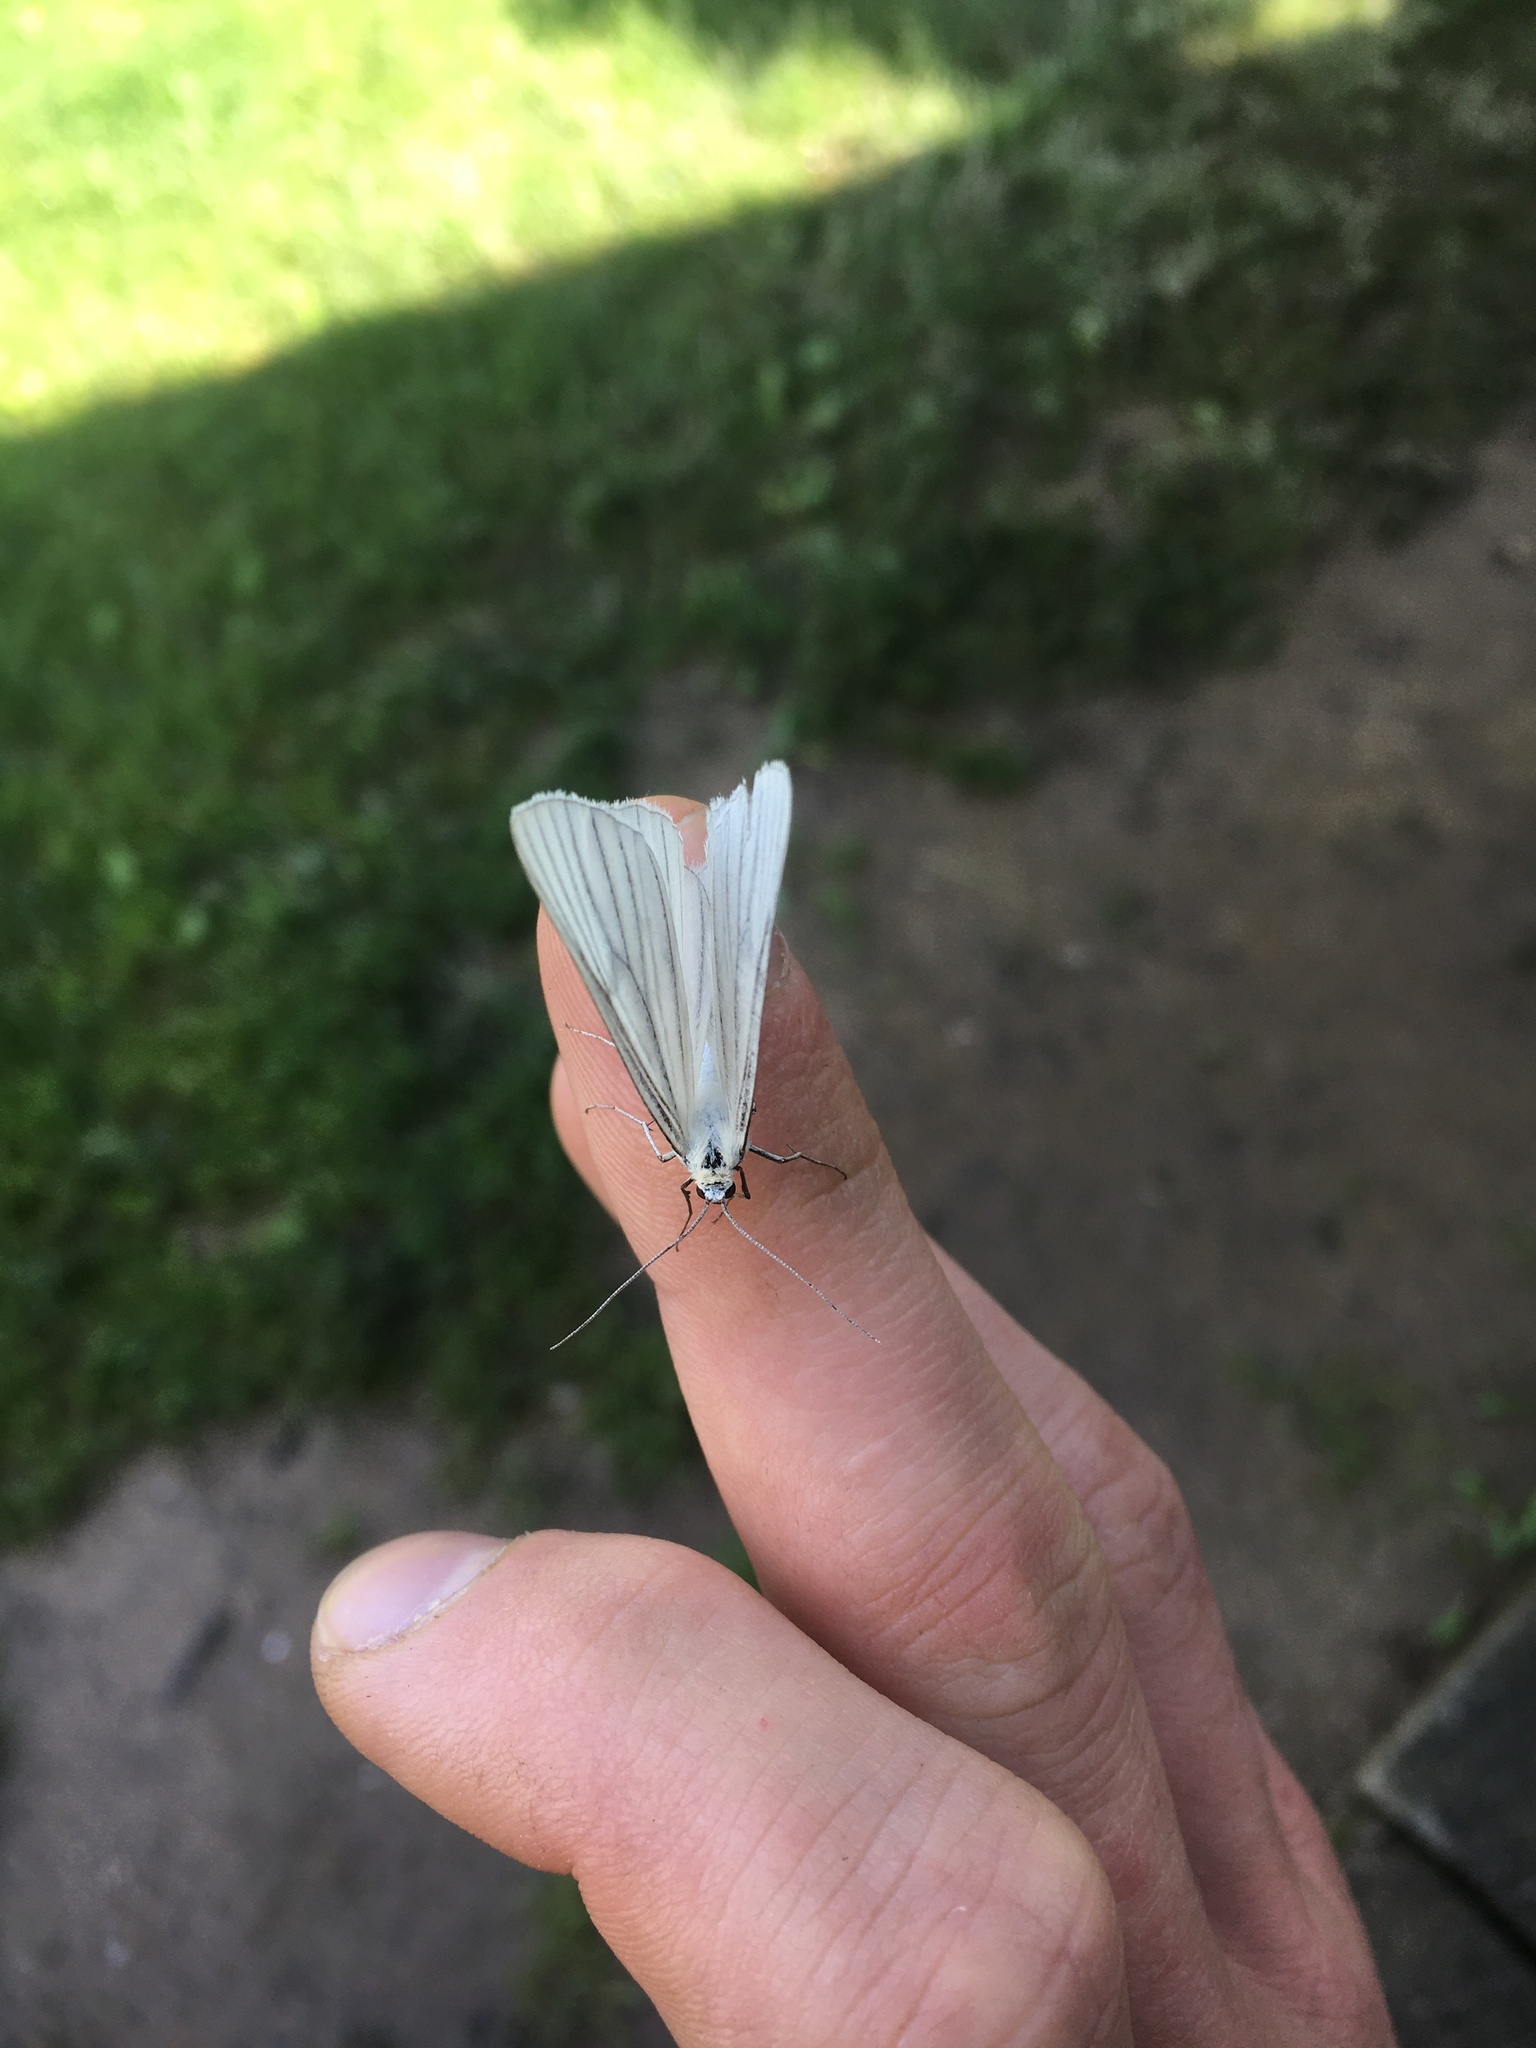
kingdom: Animalia
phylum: Arthropoda
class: Insecta
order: Lepidoptera
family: Geometridae
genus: Siona
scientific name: Siona lineata
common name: Black-veined moth
